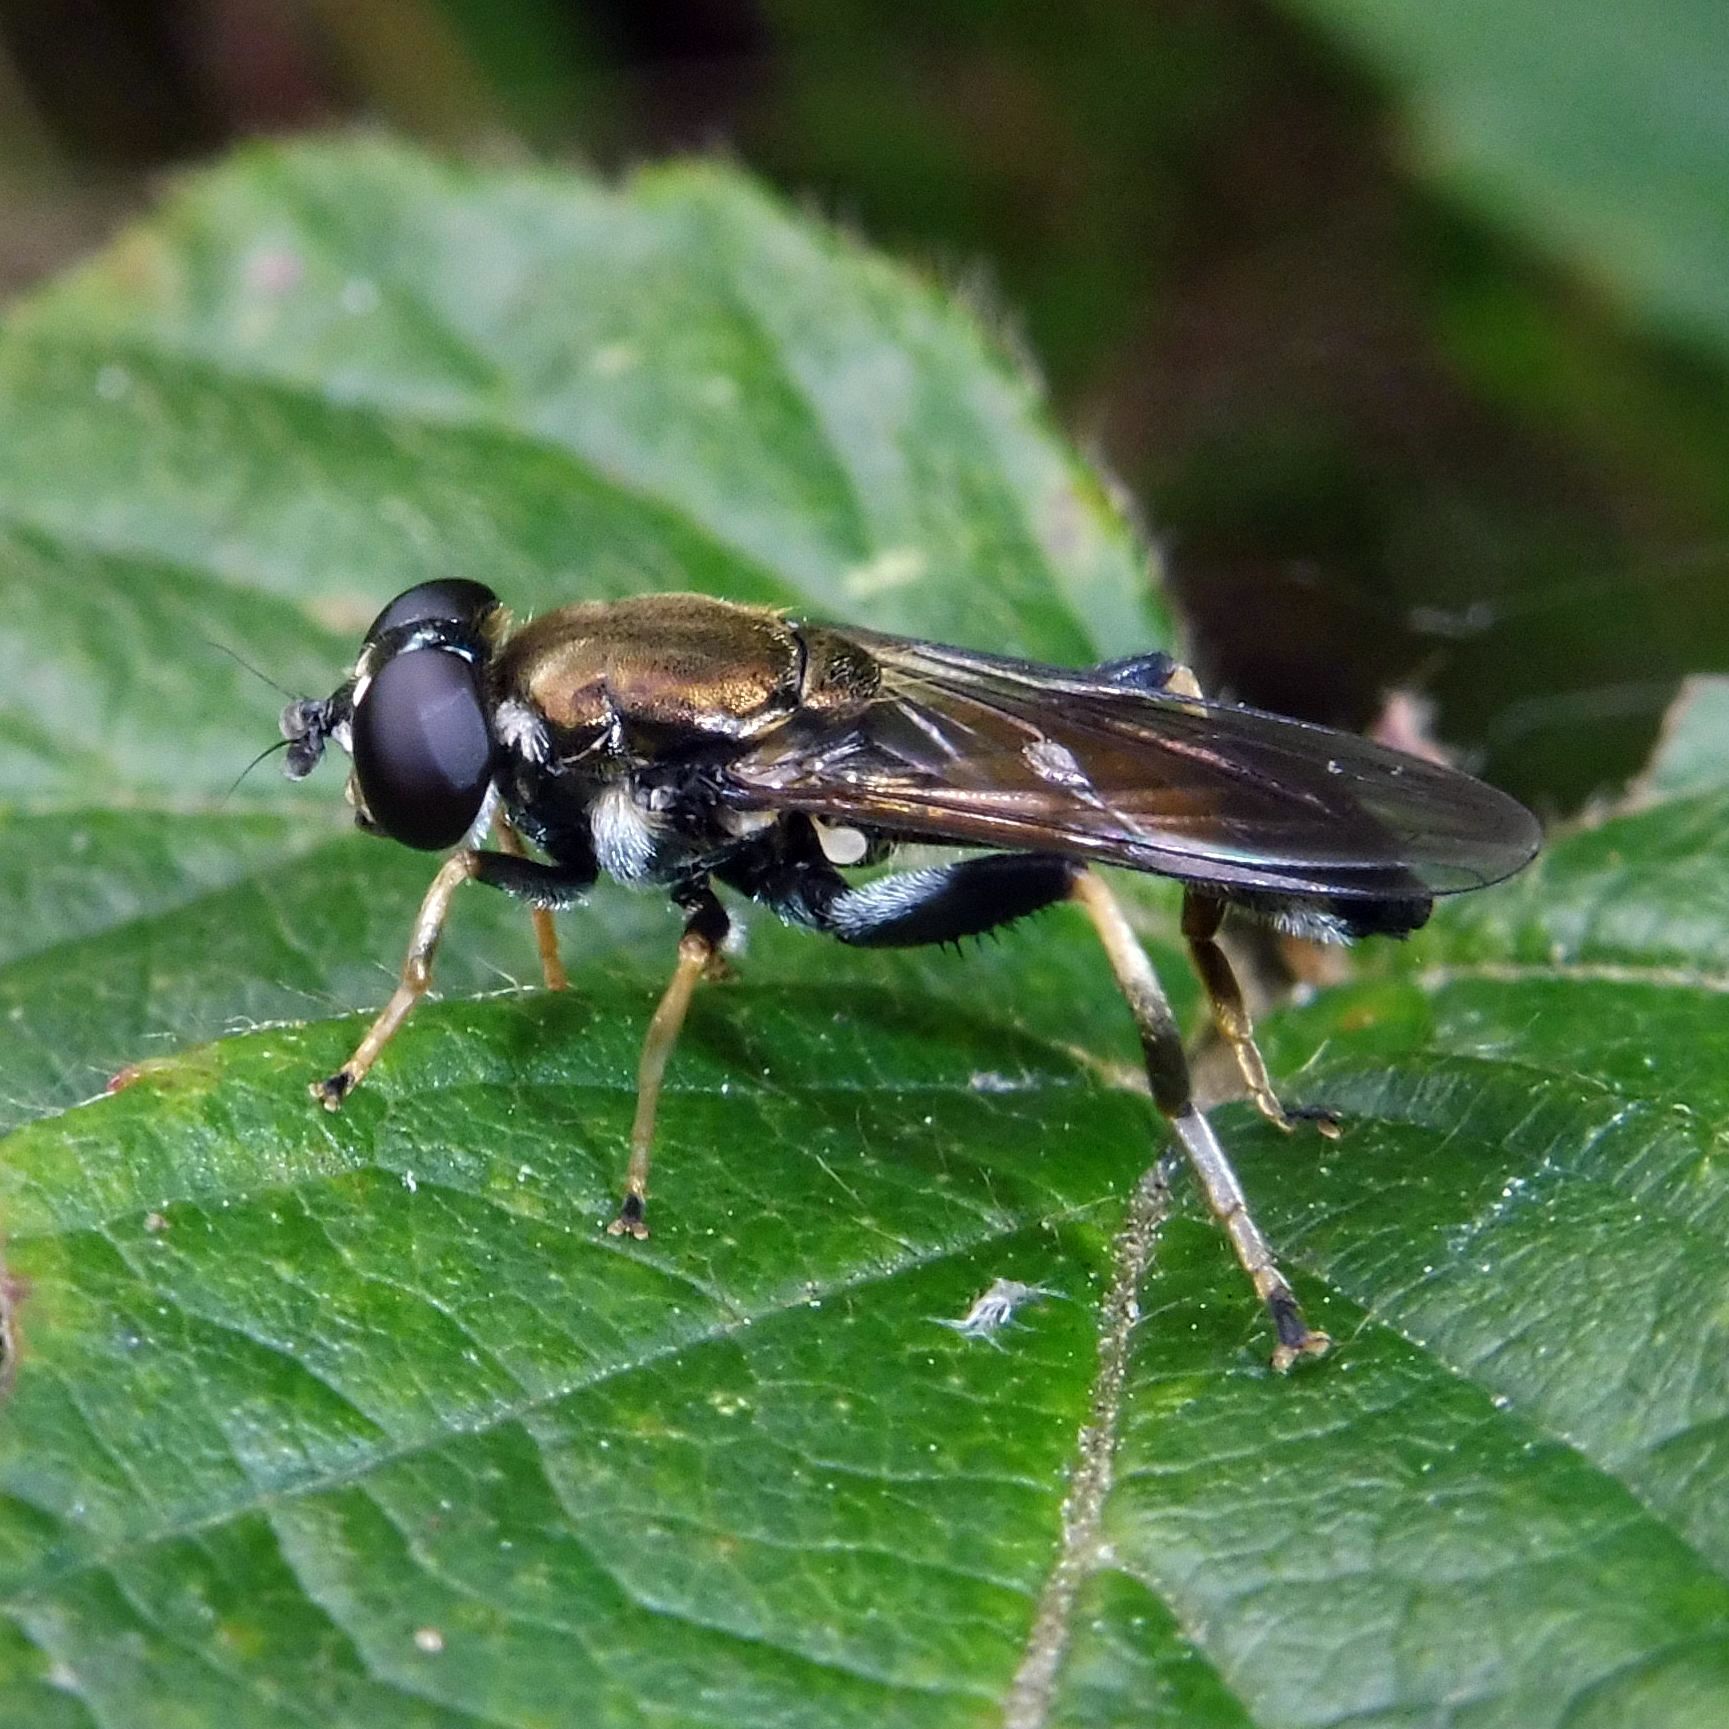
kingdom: Animalia
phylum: Arthropoda
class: Insecta
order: Diptera
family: Syrphidae
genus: Xylota
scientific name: Xylota segnis
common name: Brown-toed forest fly
